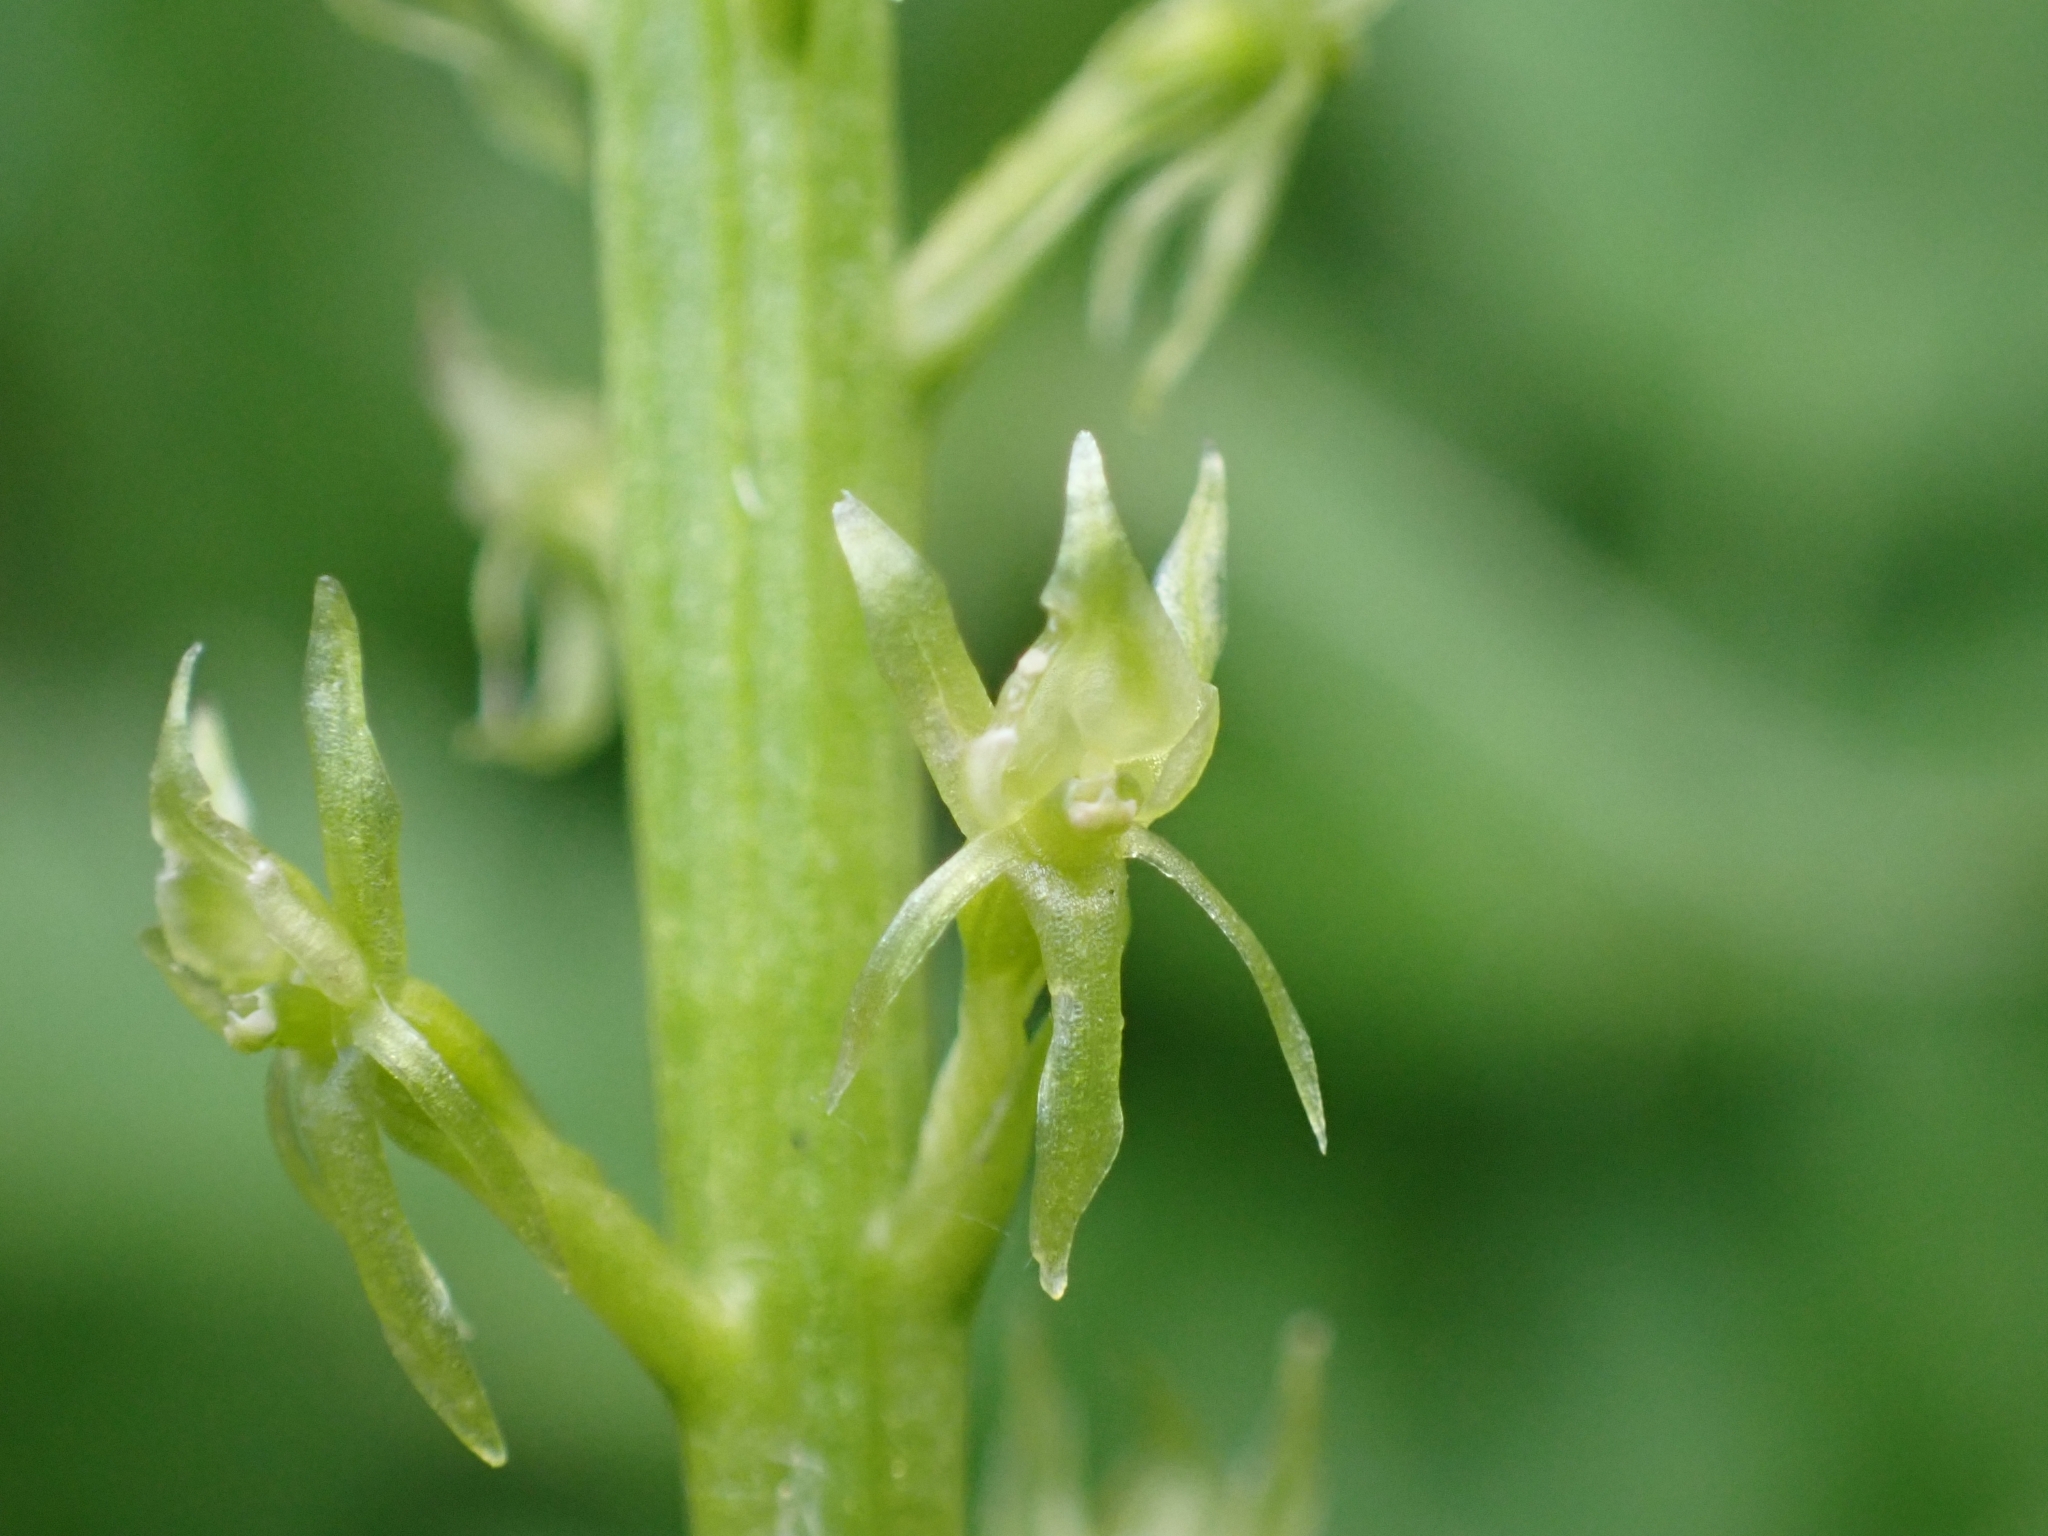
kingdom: Plantae
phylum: Tracheophyta
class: Liliopsida
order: Asparagales
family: Orchidaceae
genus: Malaxis
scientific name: Malaxis monophyllos
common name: White adder's-mouth
